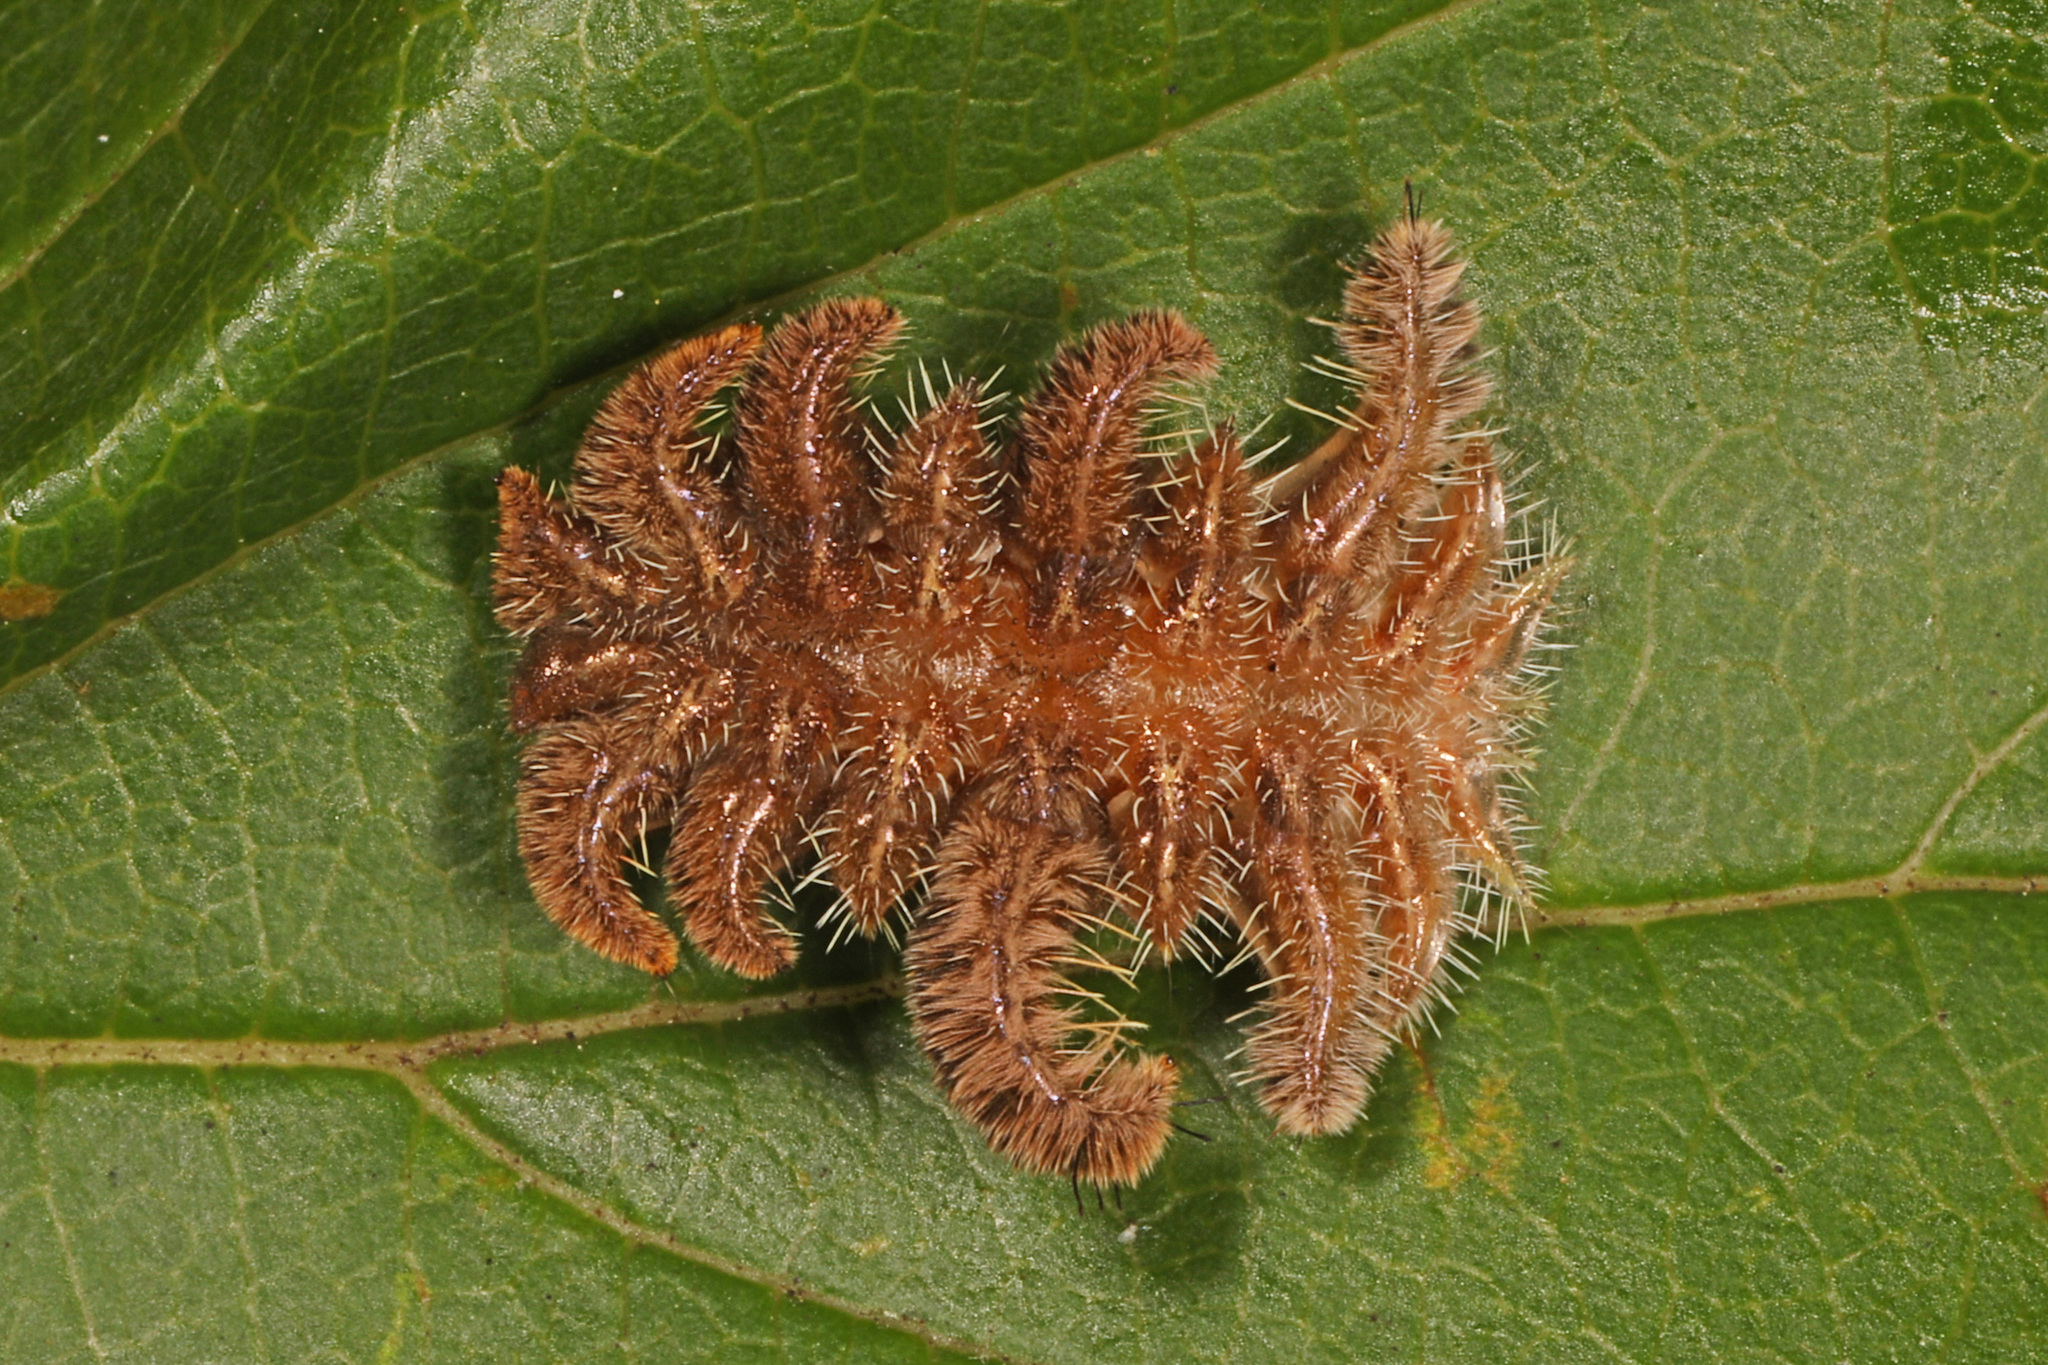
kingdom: Animalia
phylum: Arthropoda
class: Insecta
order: Lepidoptera
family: Limacodidae
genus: Phobetron
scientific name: Phobetron pithecium
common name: Hag moth
